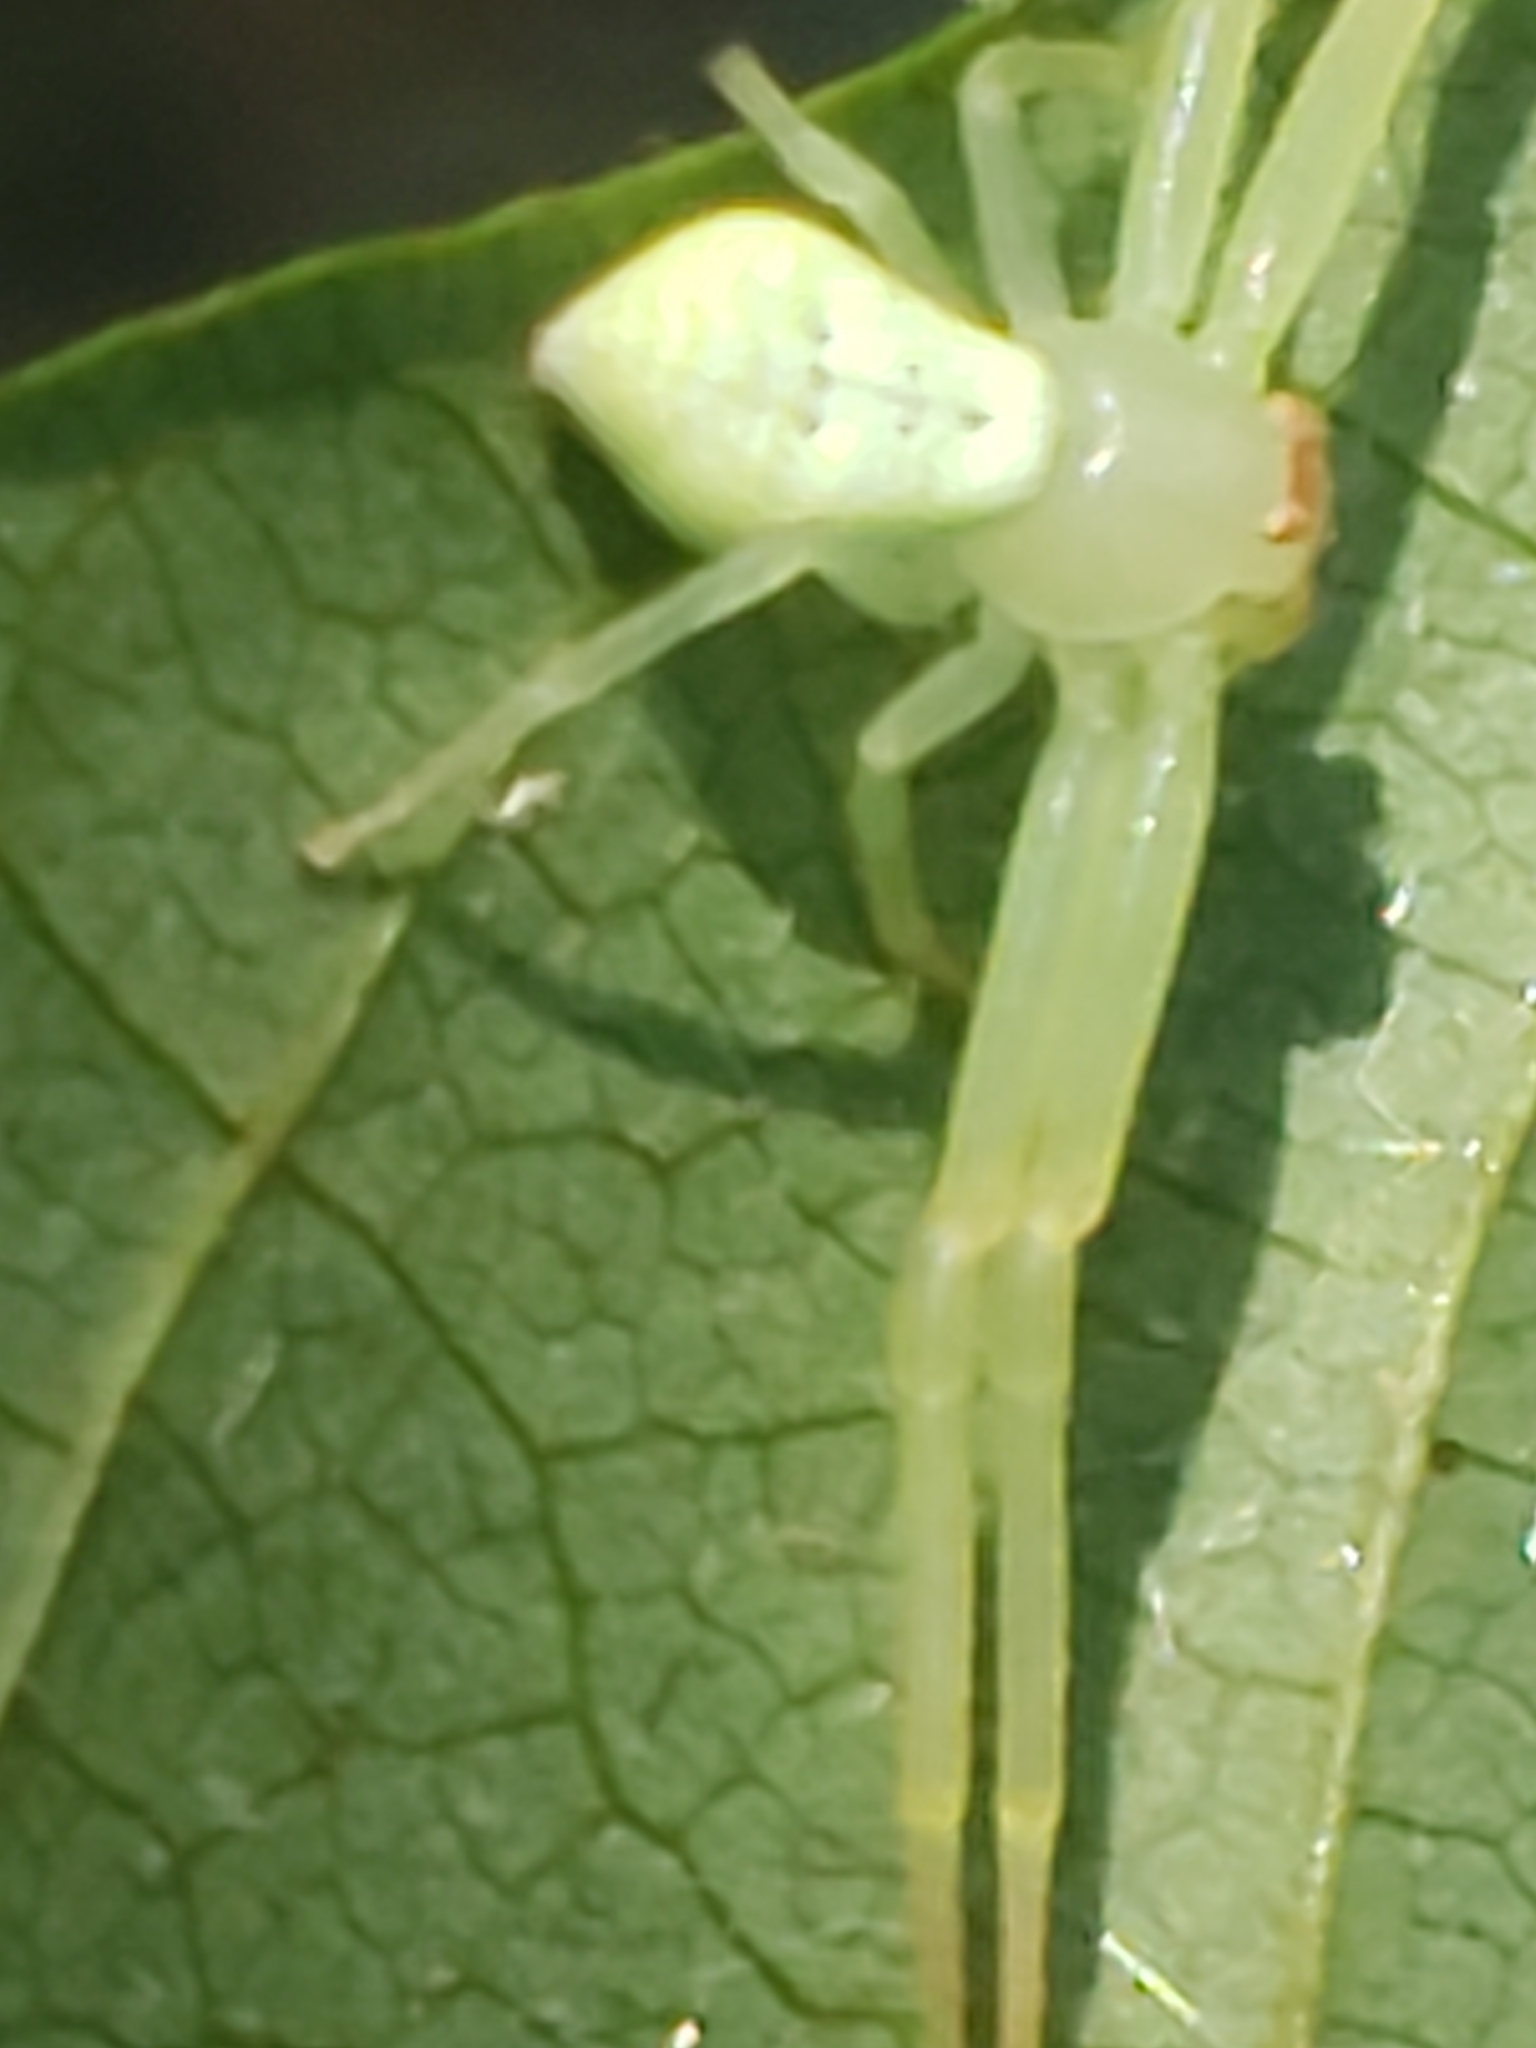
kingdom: Animalia
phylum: Arthropoda
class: Arachnida
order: Araneae
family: Thomisidae
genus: Misumessus
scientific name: Misumessus oblongus
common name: American green crab spider
